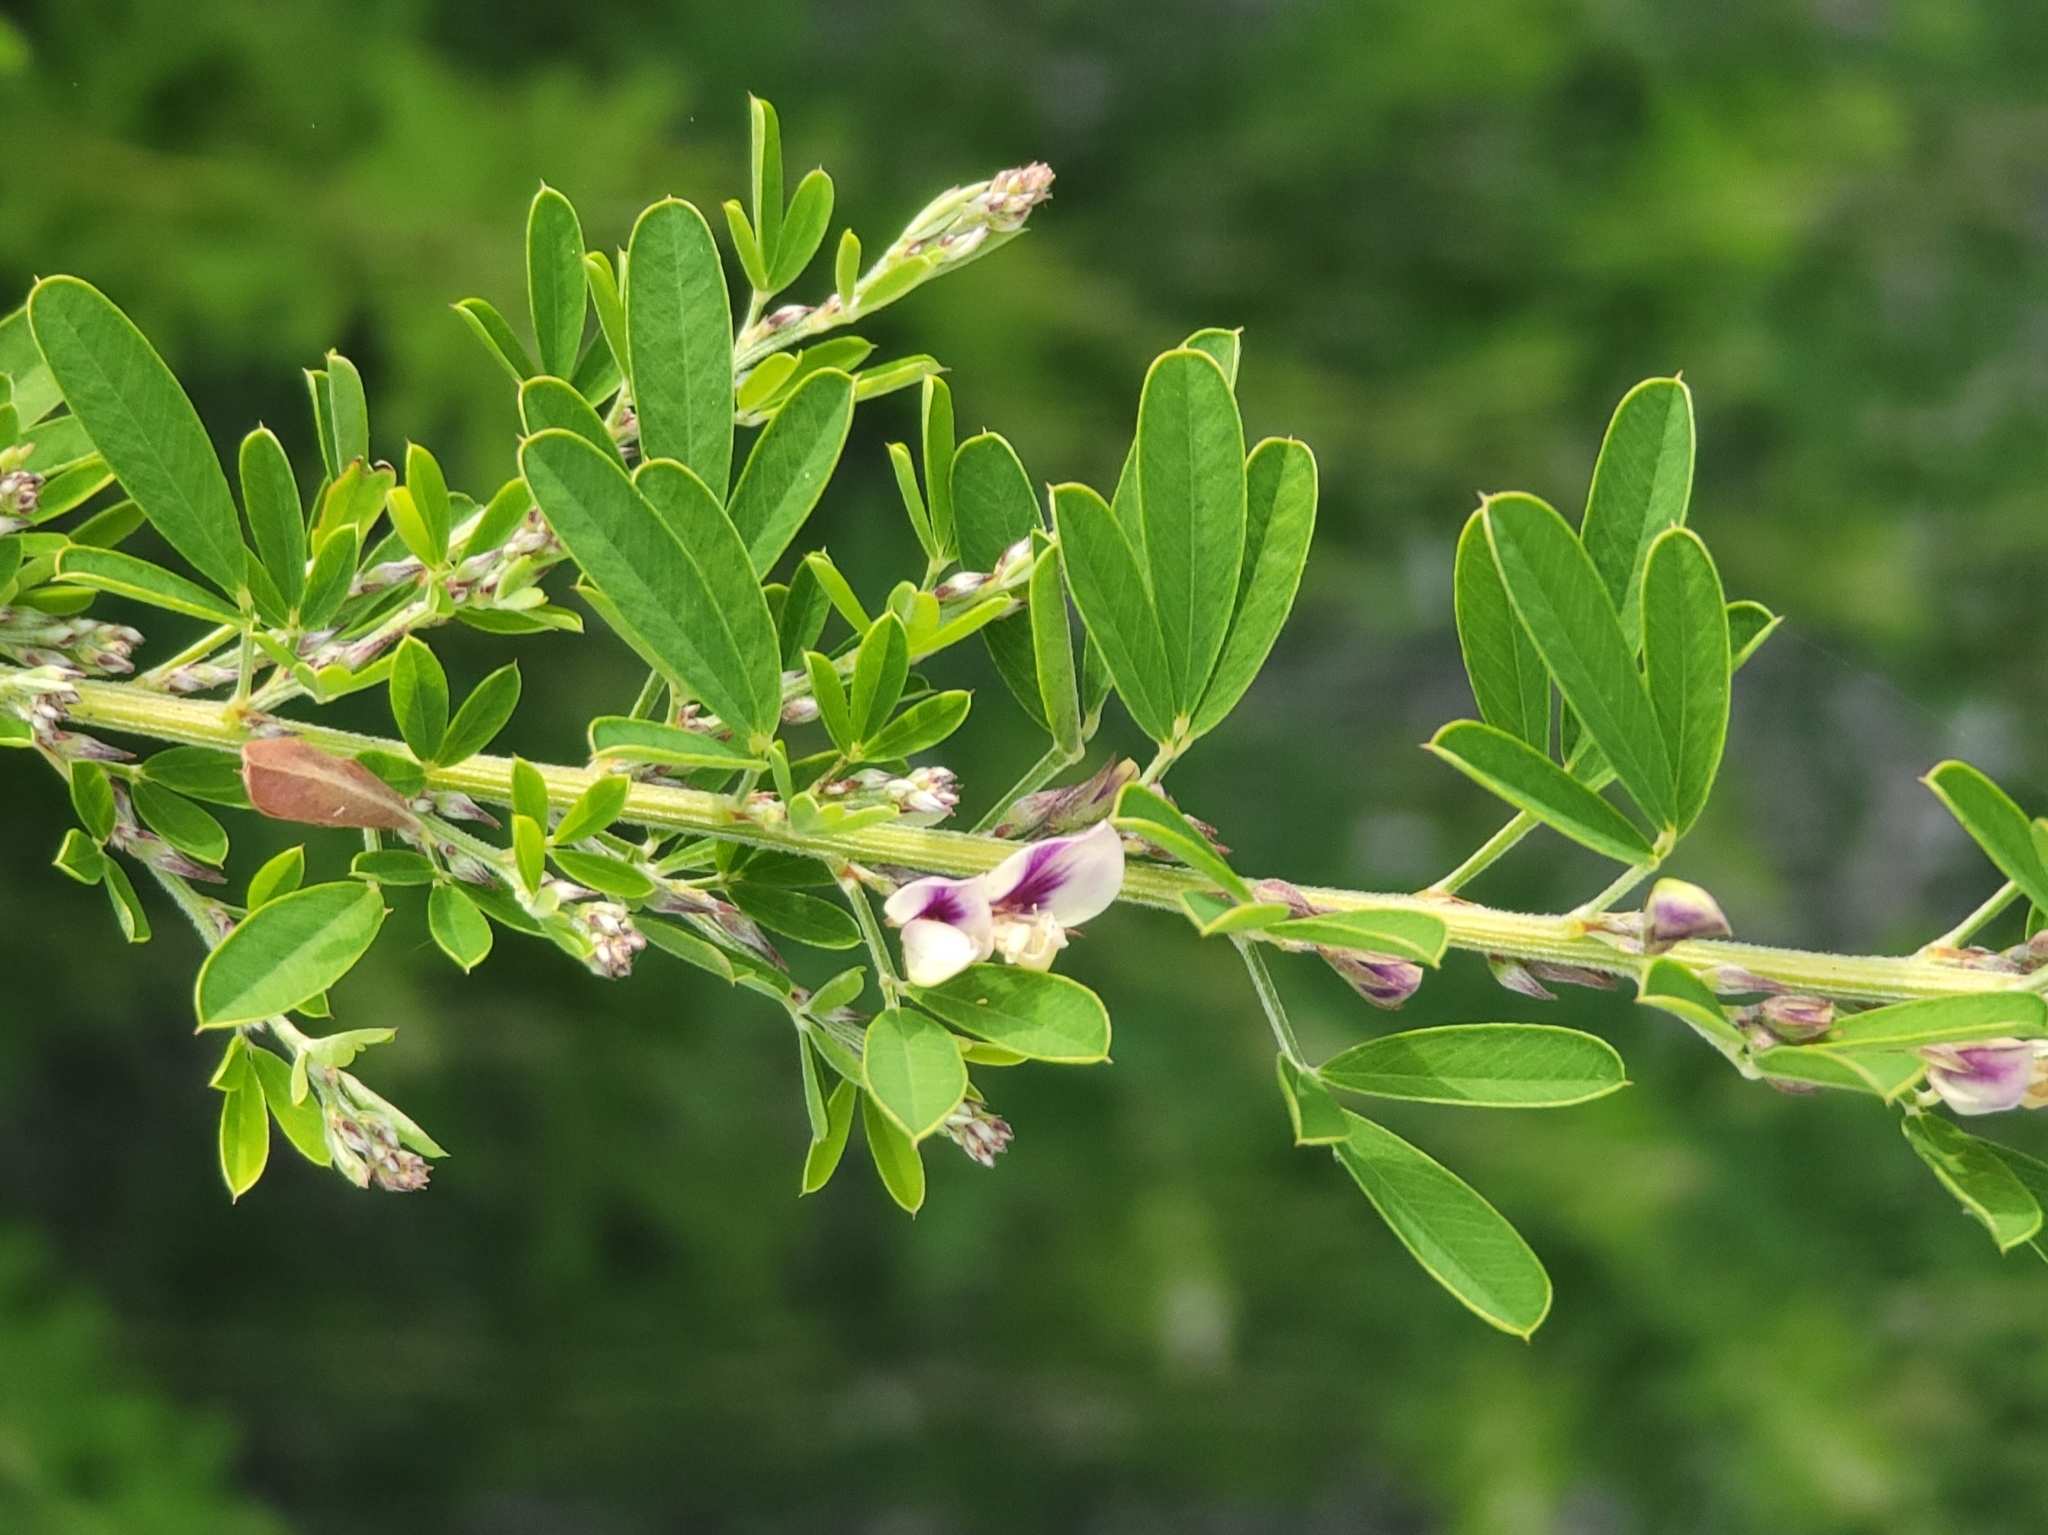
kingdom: Plantae
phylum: Tracheophyta
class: Magnoliopsida
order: Fabales
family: Fabaceae
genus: Lespedeza
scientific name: Lespedeza cuneata
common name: Chinese bush-clover
